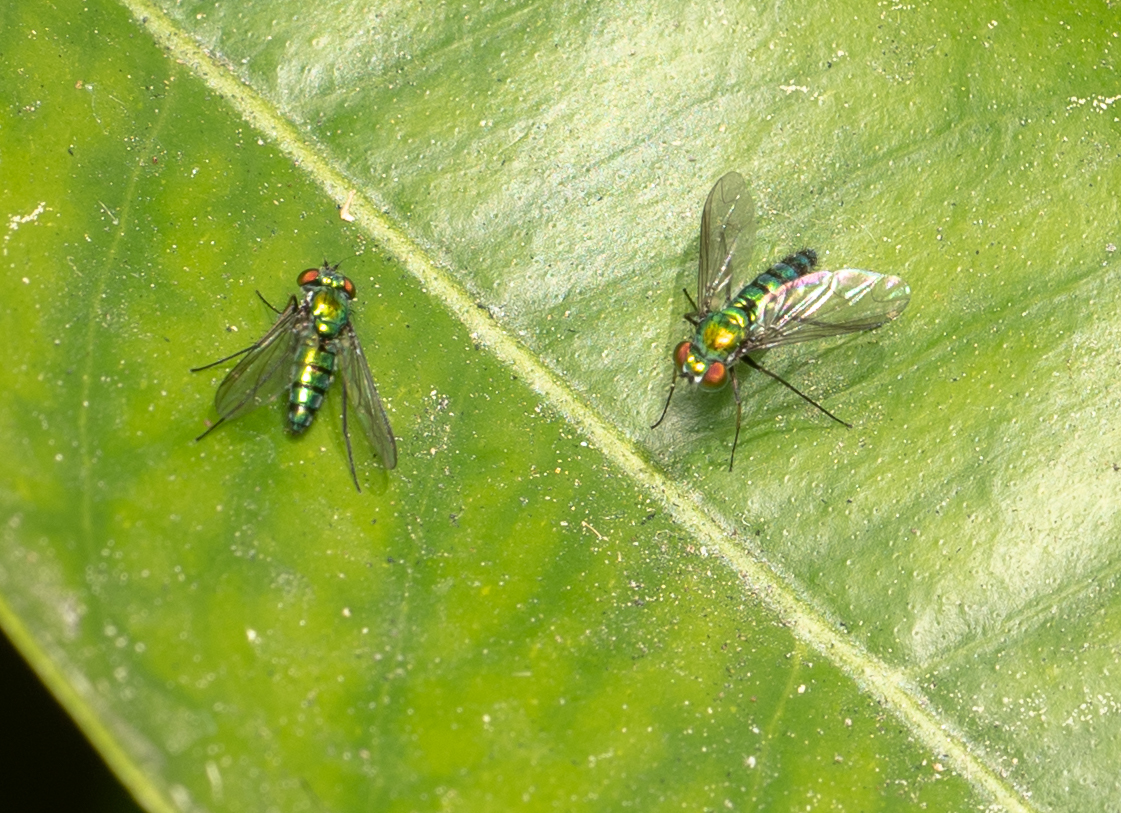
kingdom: Animalia
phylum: Arthropoda
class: Insecta
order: Diptera
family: Dolichopodidae
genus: Condylostylus
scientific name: Condylostylus longicornis
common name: Long-legged fly
